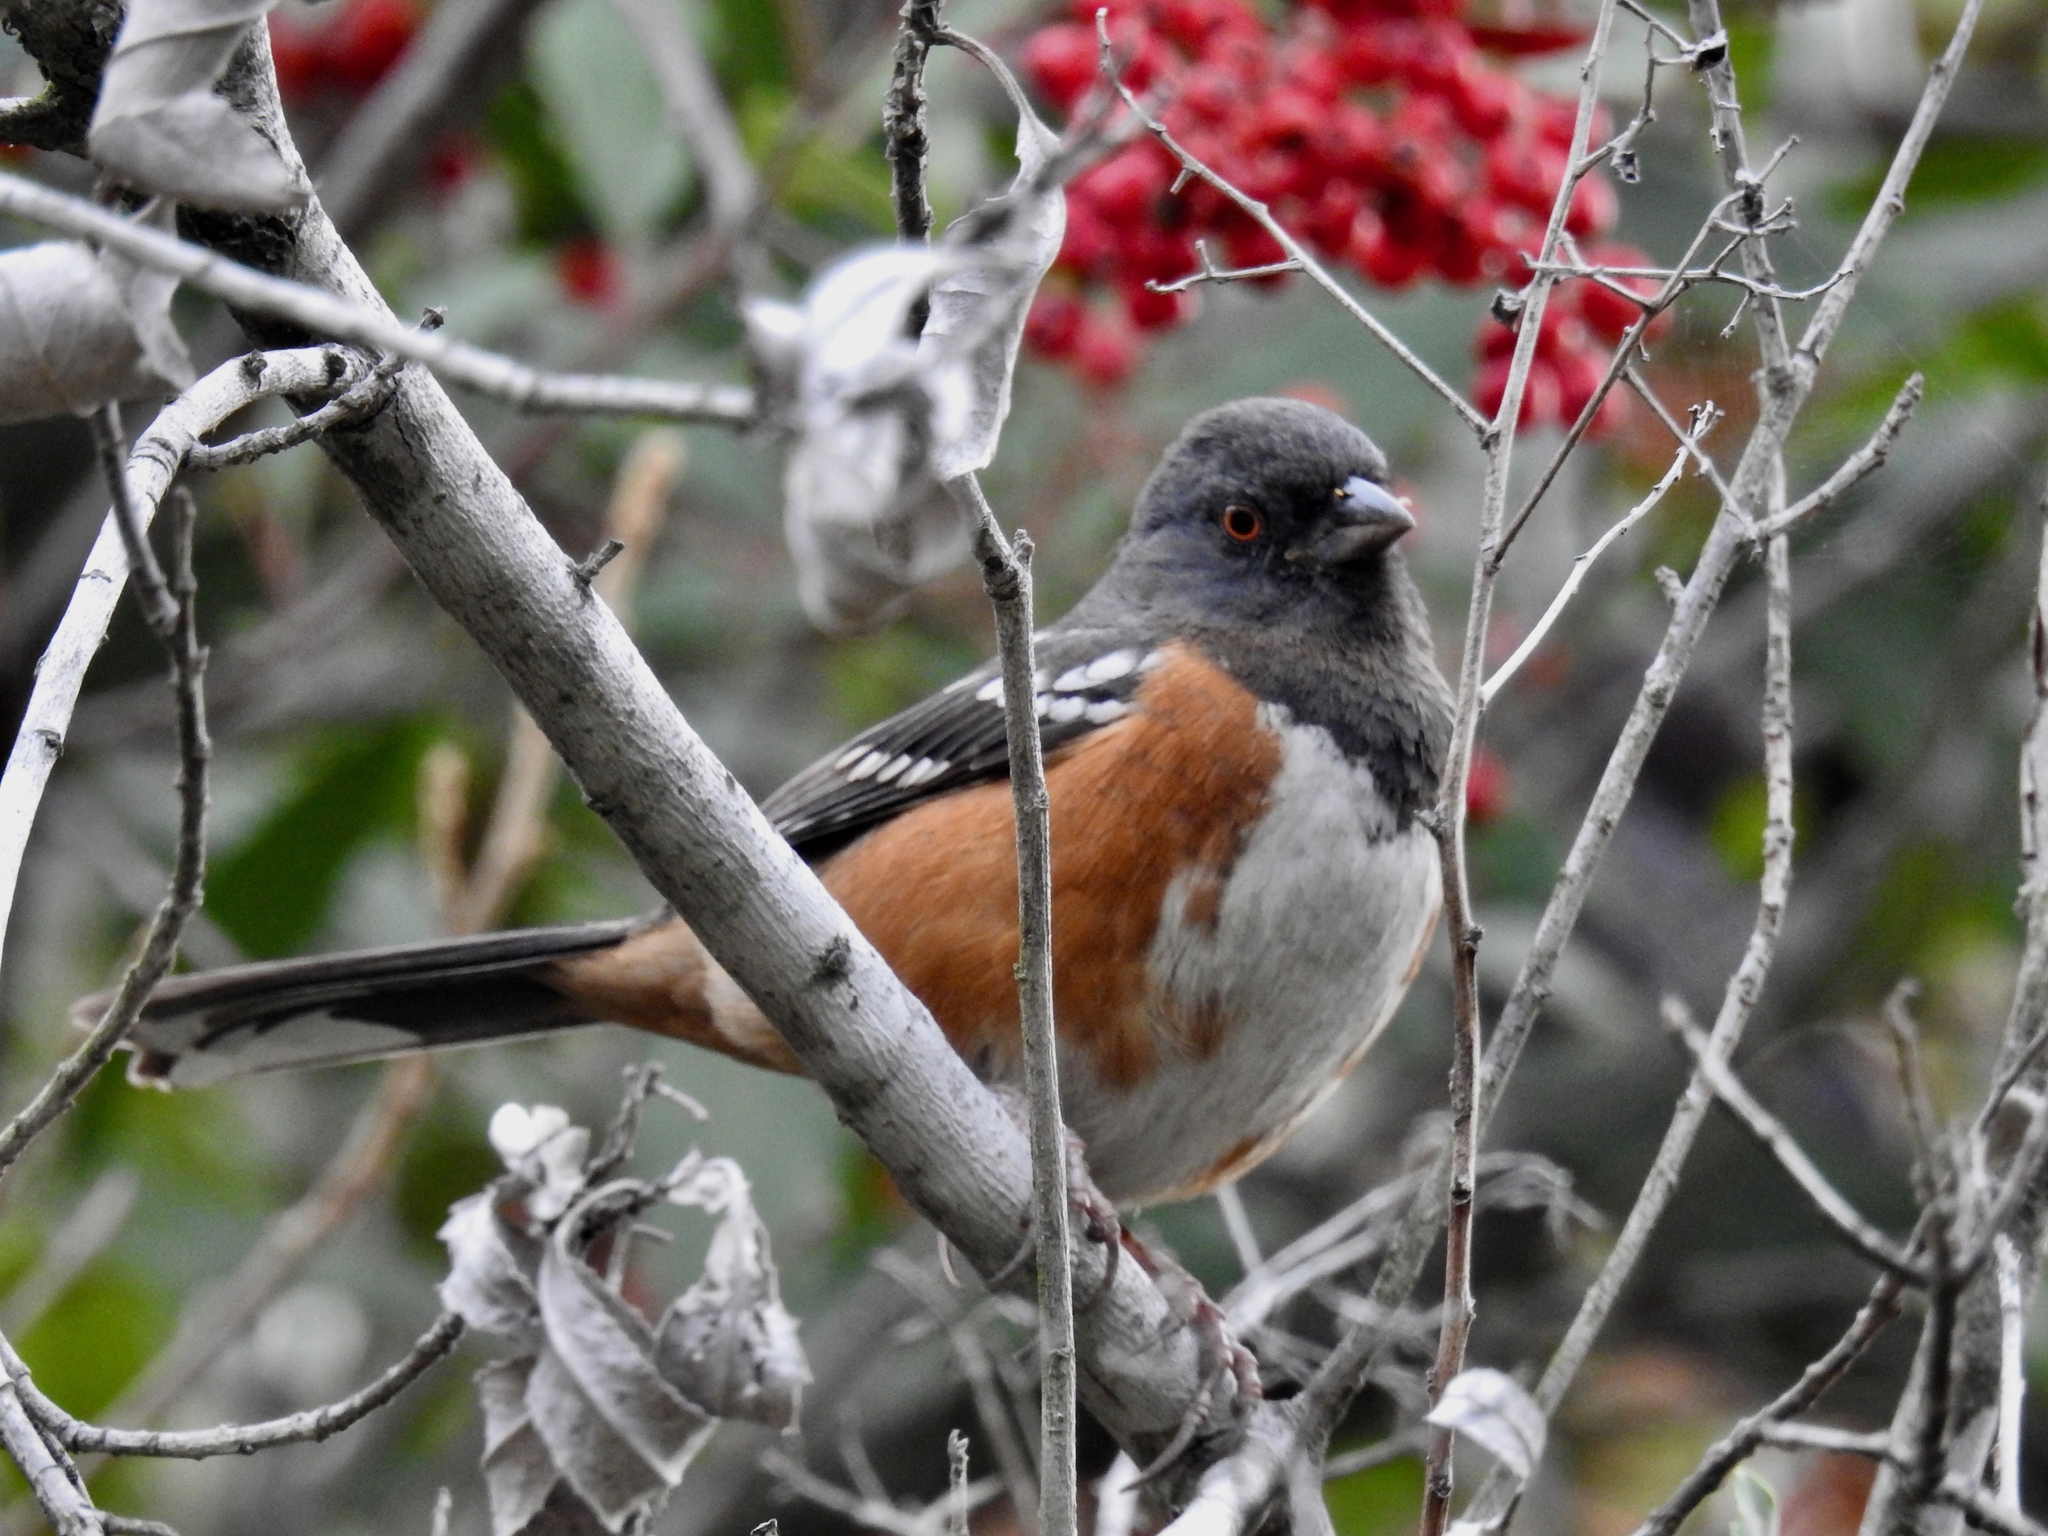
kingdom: Animalia
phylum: Chordata
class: Aves
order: Passeriformes
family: Passerellidae
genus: Pipilo
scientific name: Pipilo maculatus
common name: Spotted towhee
